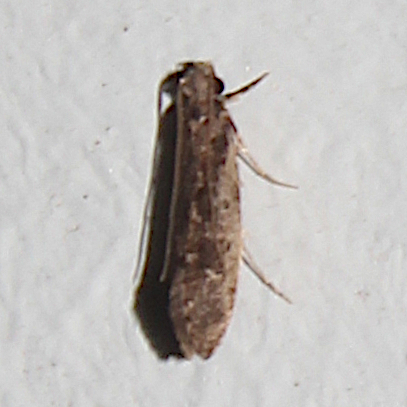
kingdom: Animalia
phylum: Arthropoda
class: Insecta
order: Lepidoptera
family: Tineidae
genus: Erechthias
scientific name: Erechthias capnitis
